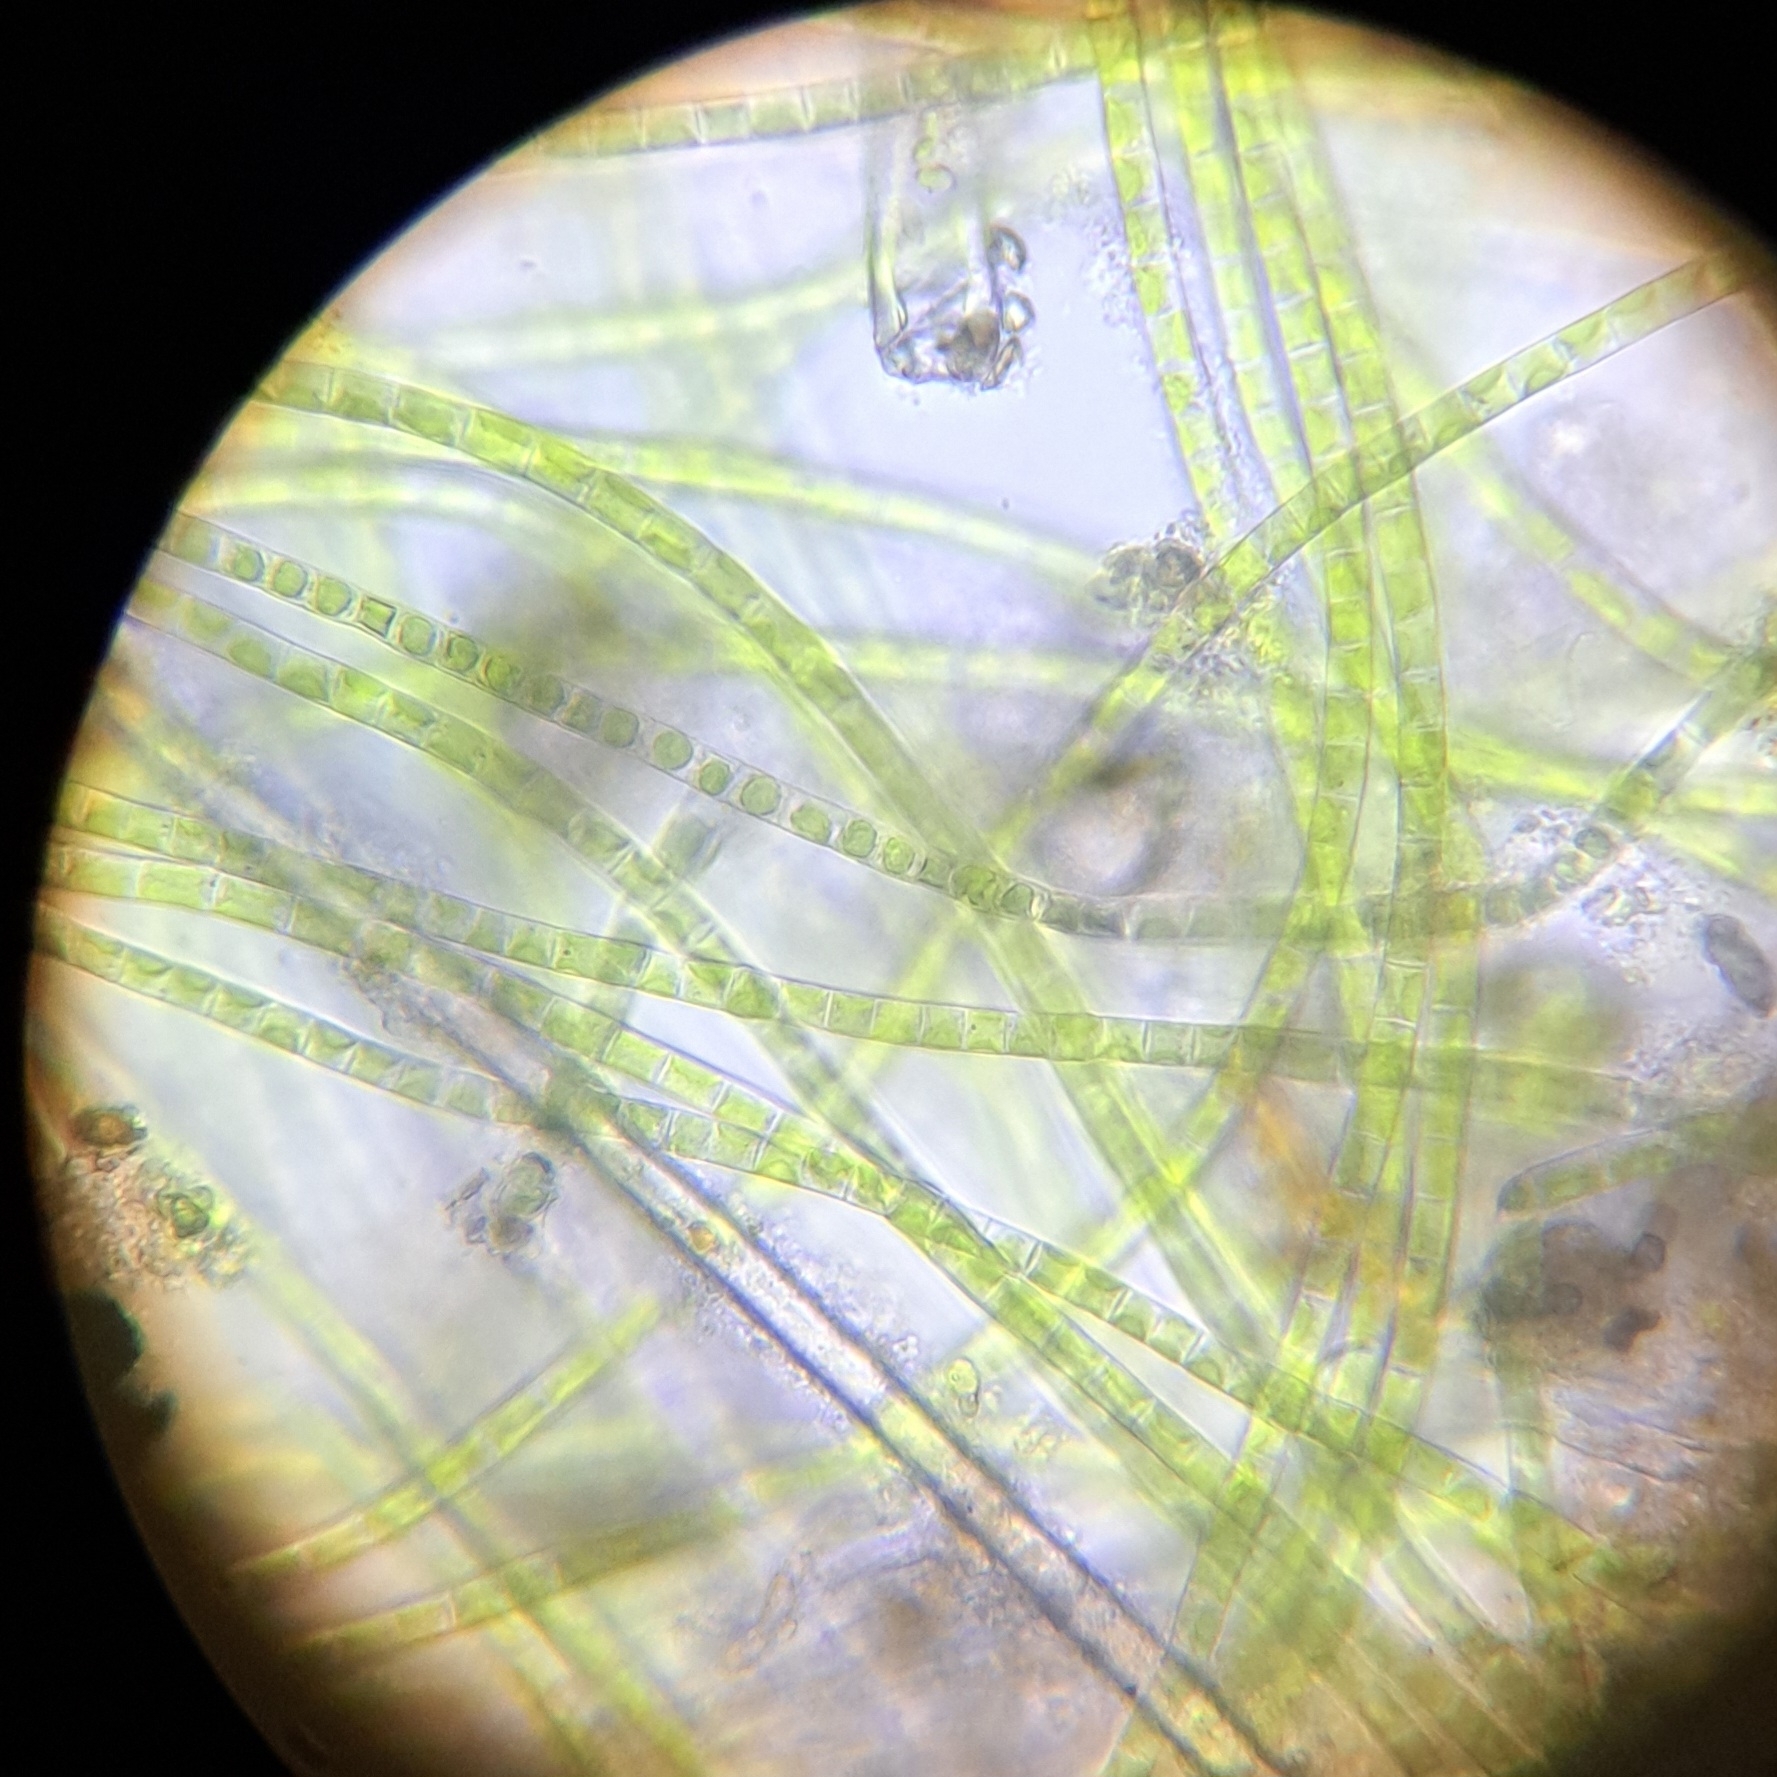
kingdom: Plantae
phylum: Charophyta
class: Klebsormidiophyceae
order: Klebsormidiales
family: Klebsormidiaceae
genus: Klebsormidium
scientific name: Klebsormidium
